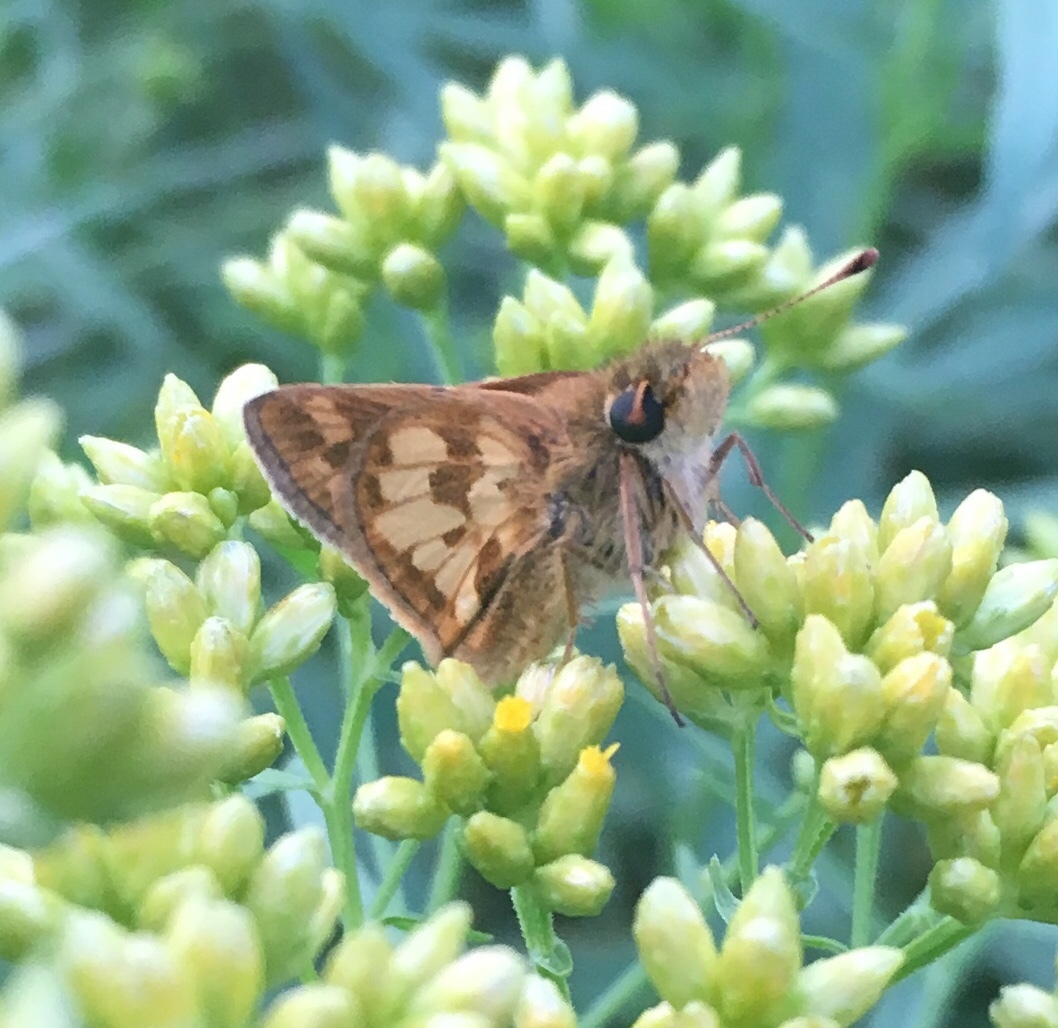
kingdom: Animalia
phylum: Arthropoda
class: Insecta
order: Lepidoptera
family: Hesperiidae
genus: Polites
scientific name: Polites coras
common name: Peck's skipper
